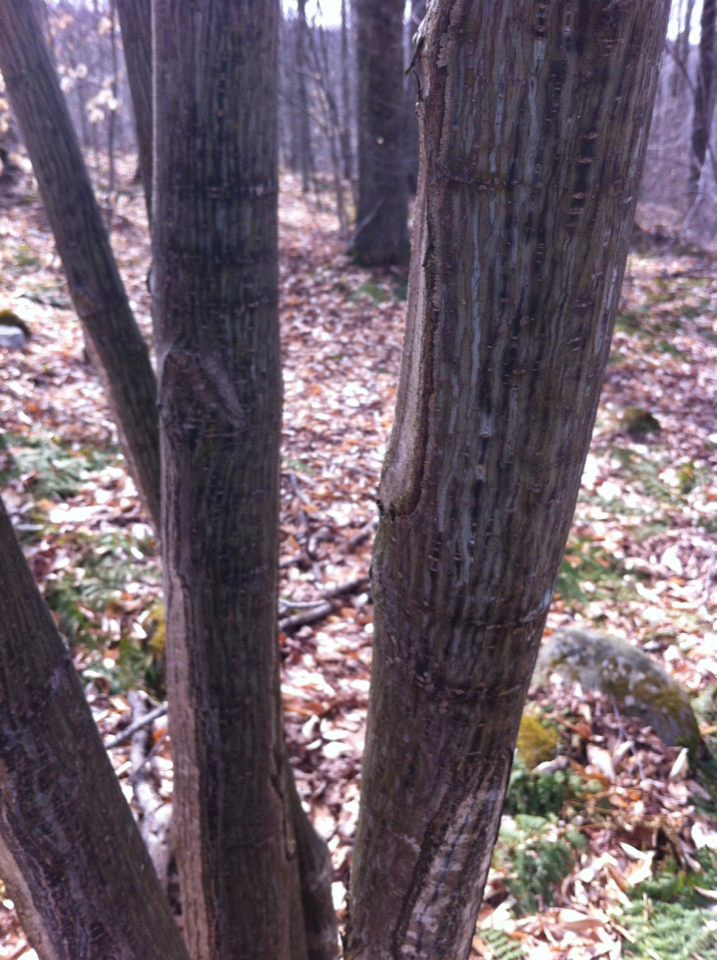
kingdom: Plantae
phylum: Tracheophyta
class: Magnoliopsida
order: Sapindales
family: Sapindaceae
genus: Acer
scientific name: Acer pensylvanicum
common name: Moosewood
